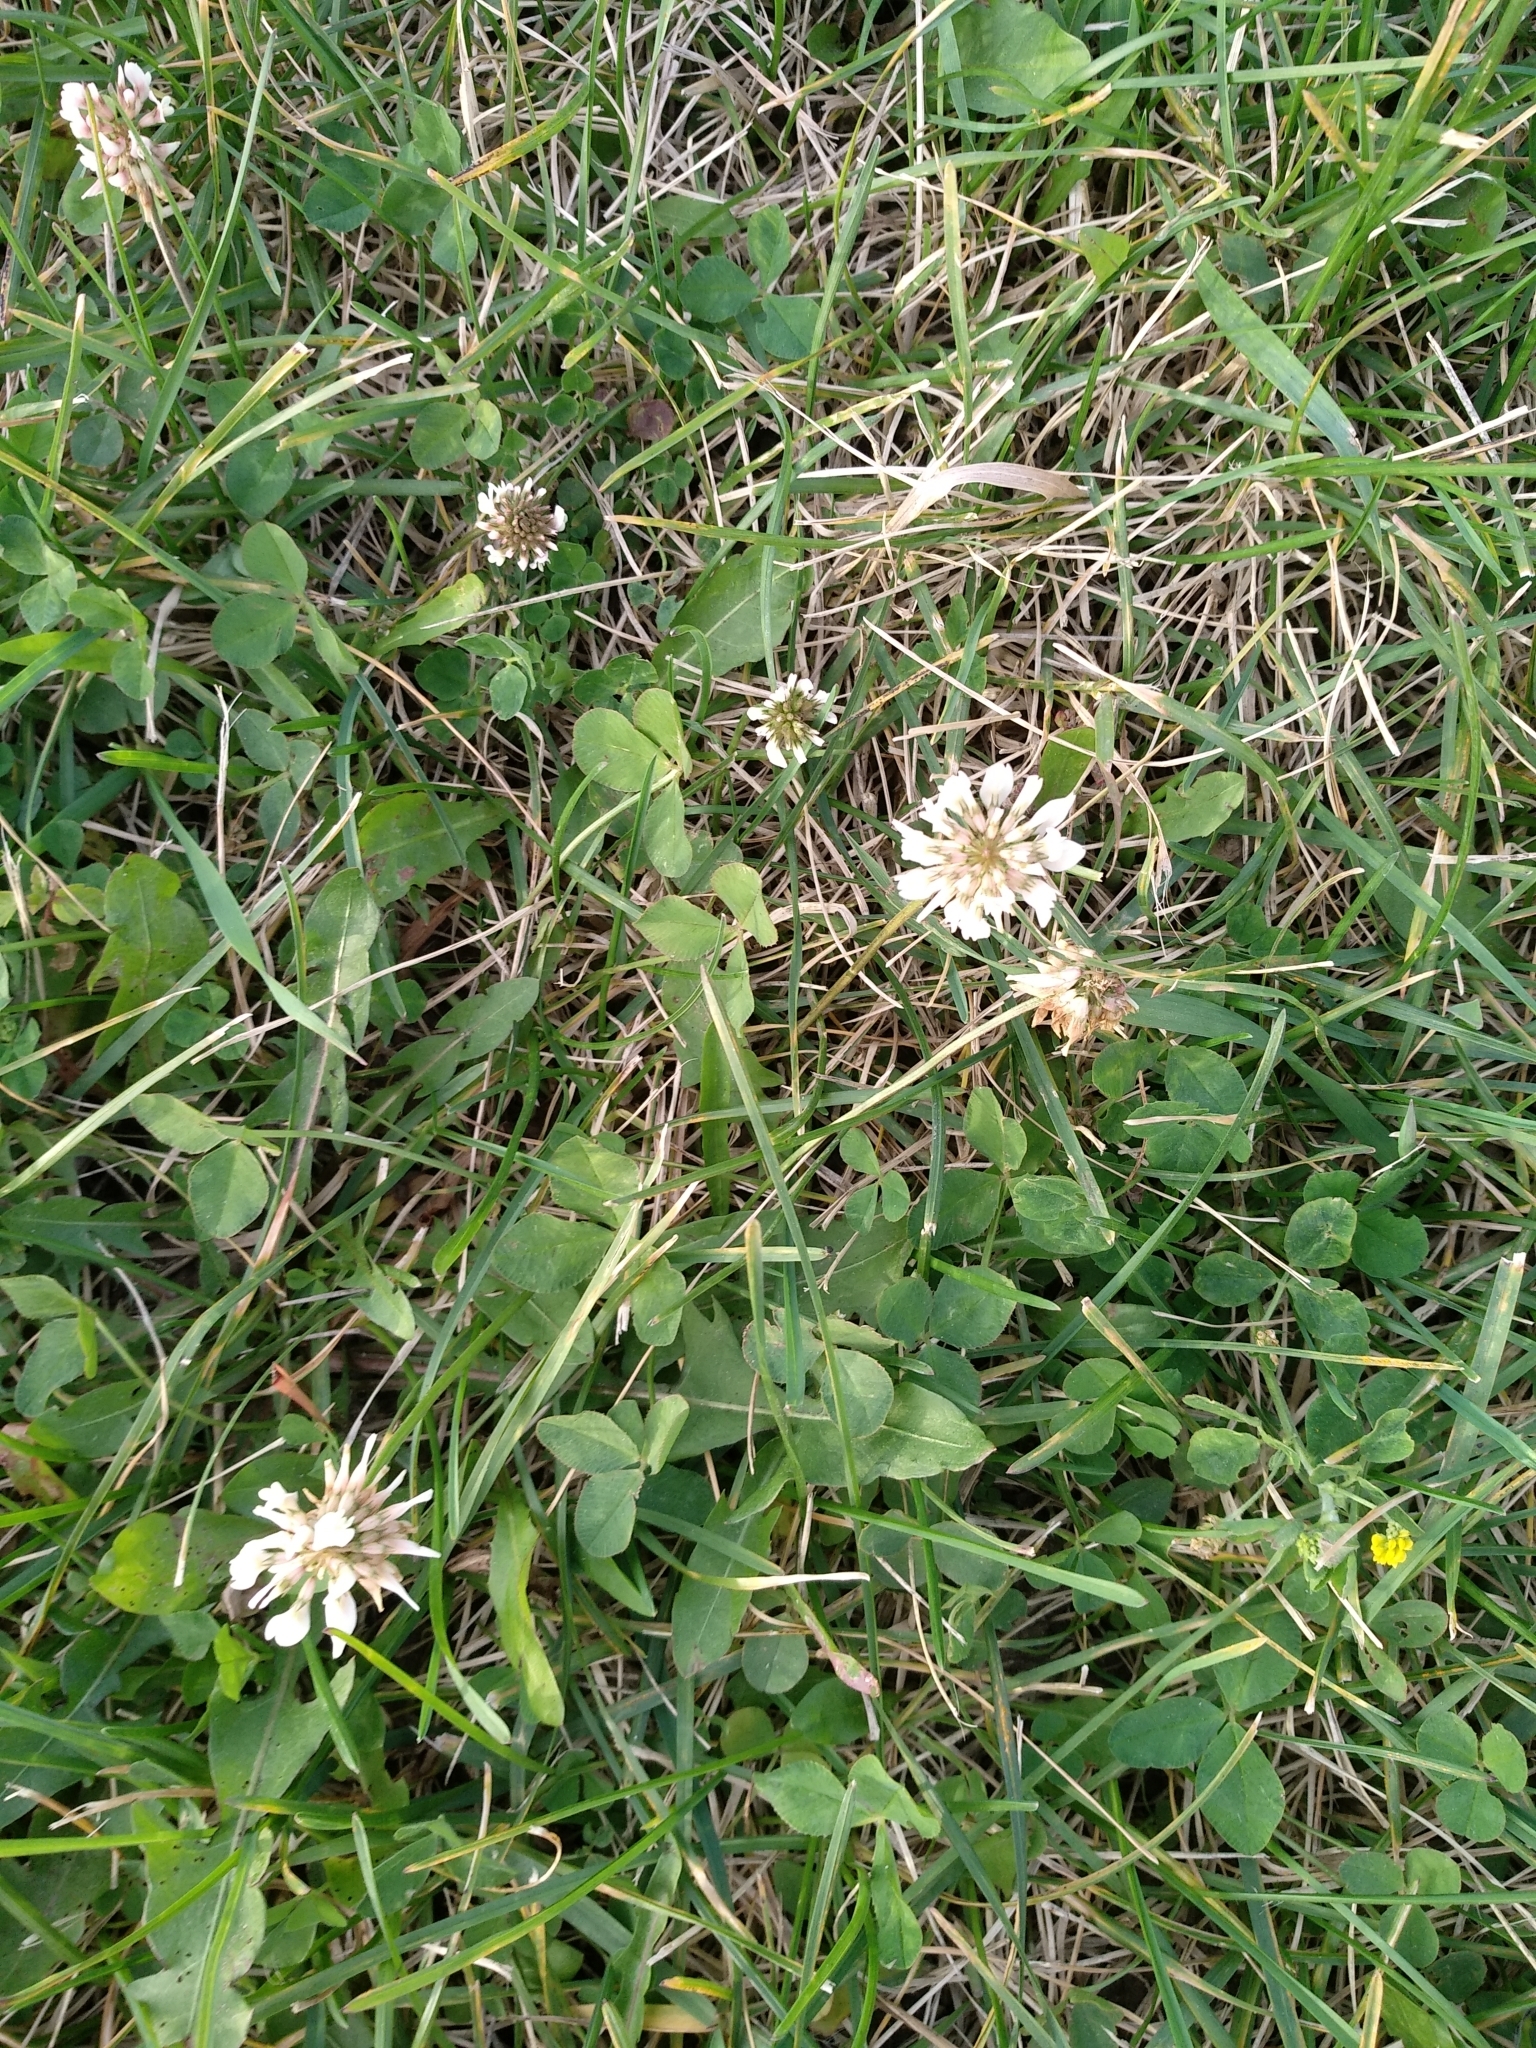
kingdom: Plantae
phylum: Tracheophyta
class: Magnoliopsida
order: Fabales
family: Fabaceae
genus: Trifolium
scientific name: Trifolium repens
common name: White clover
